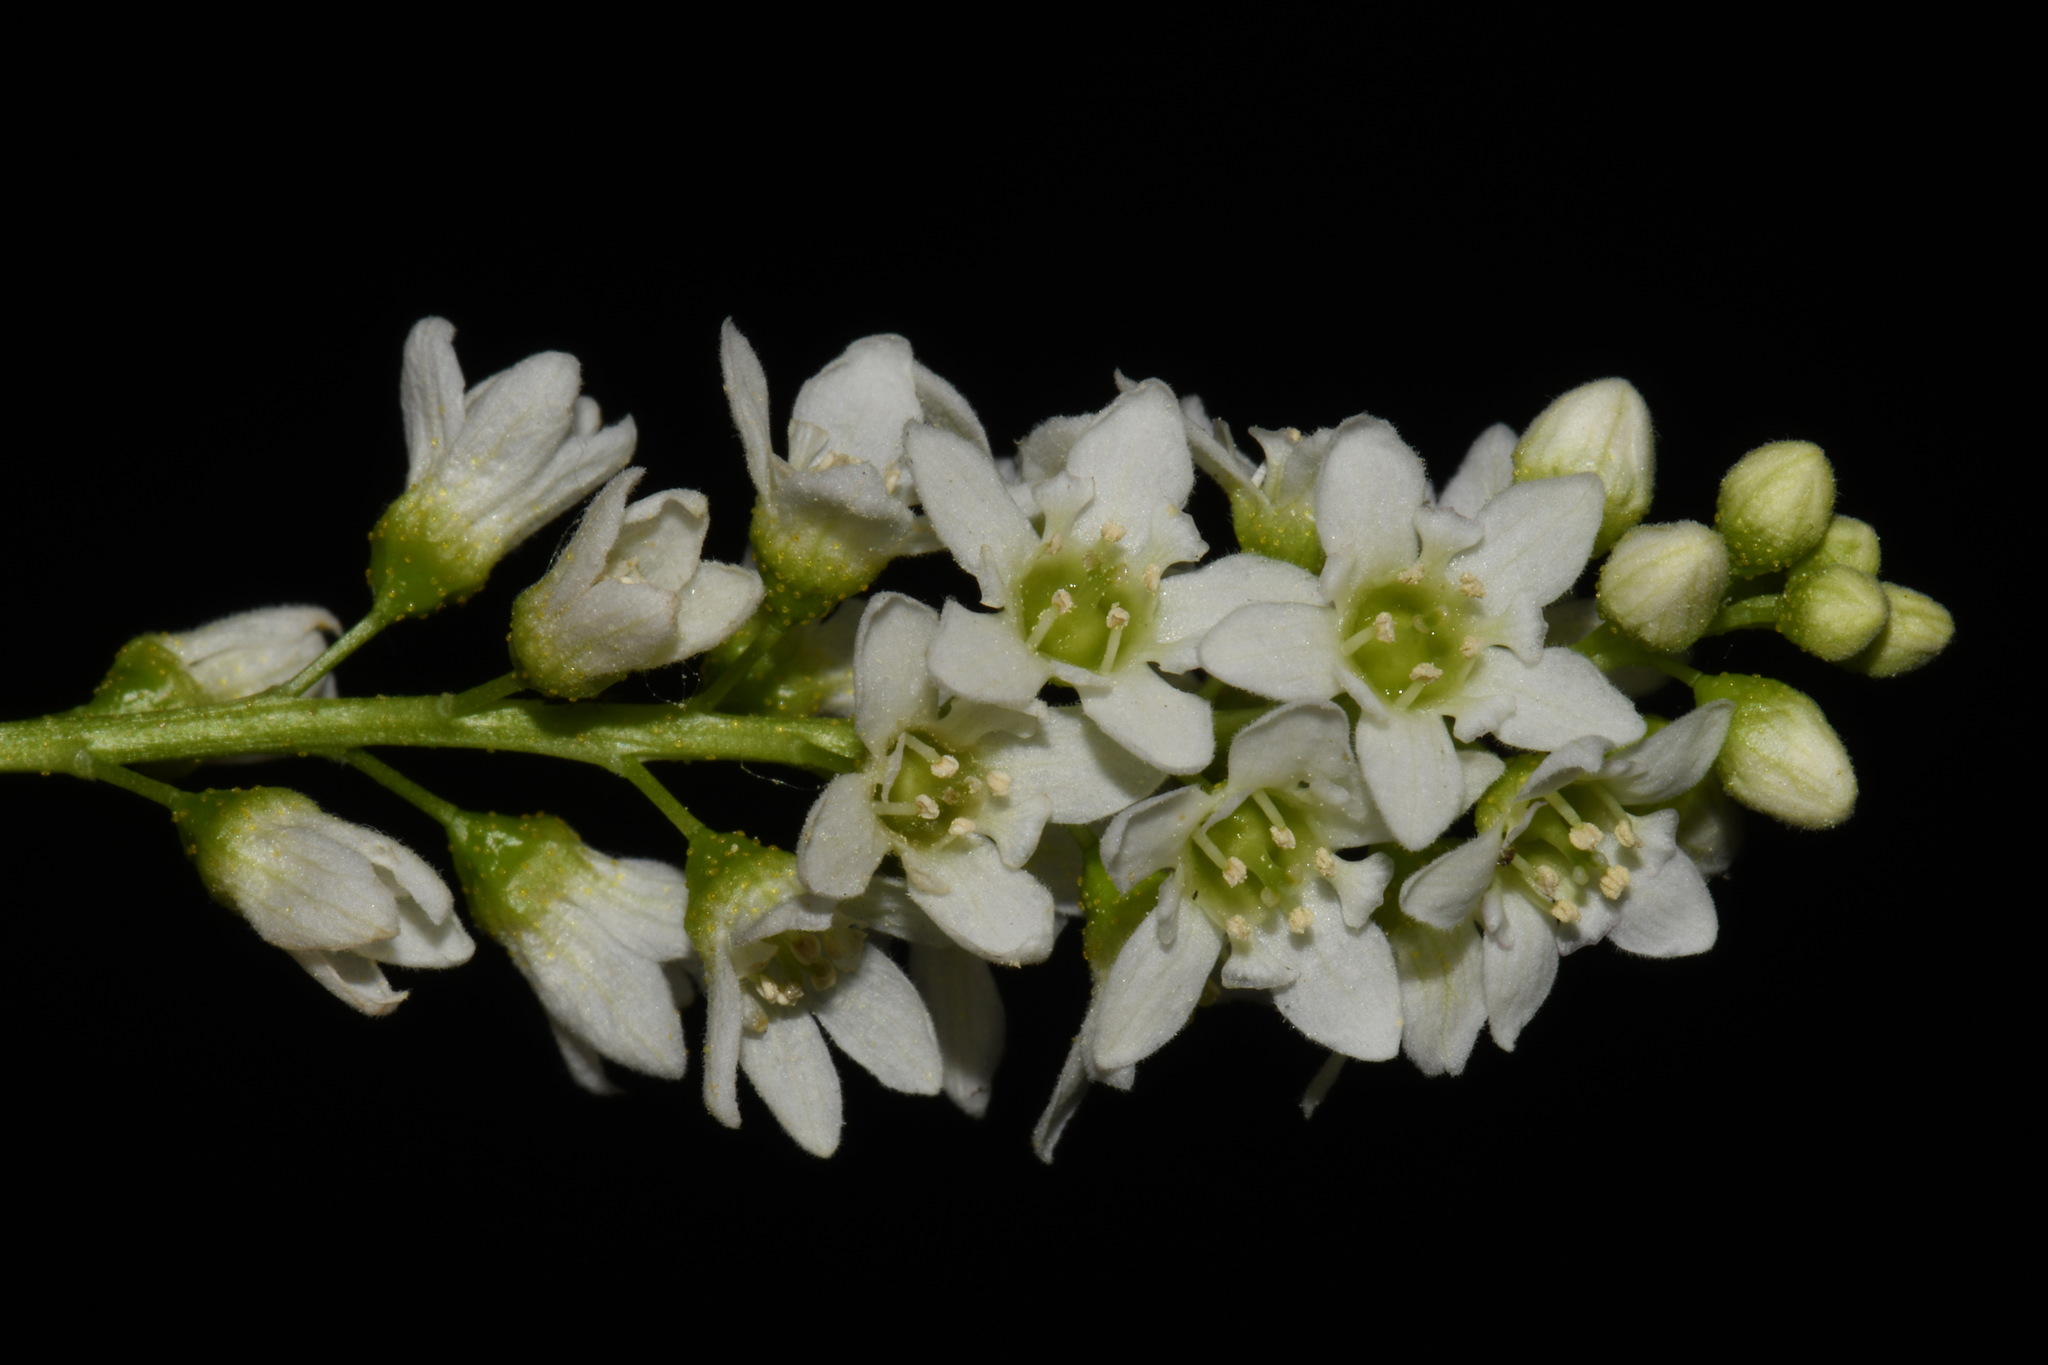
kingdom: Plantae
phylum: Tracheophyta
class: Magnoliopsida
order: Saxifragales
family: Grossulariaceae
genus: Ribes
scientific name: Ribes hudsonianum
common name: Northern black currant
